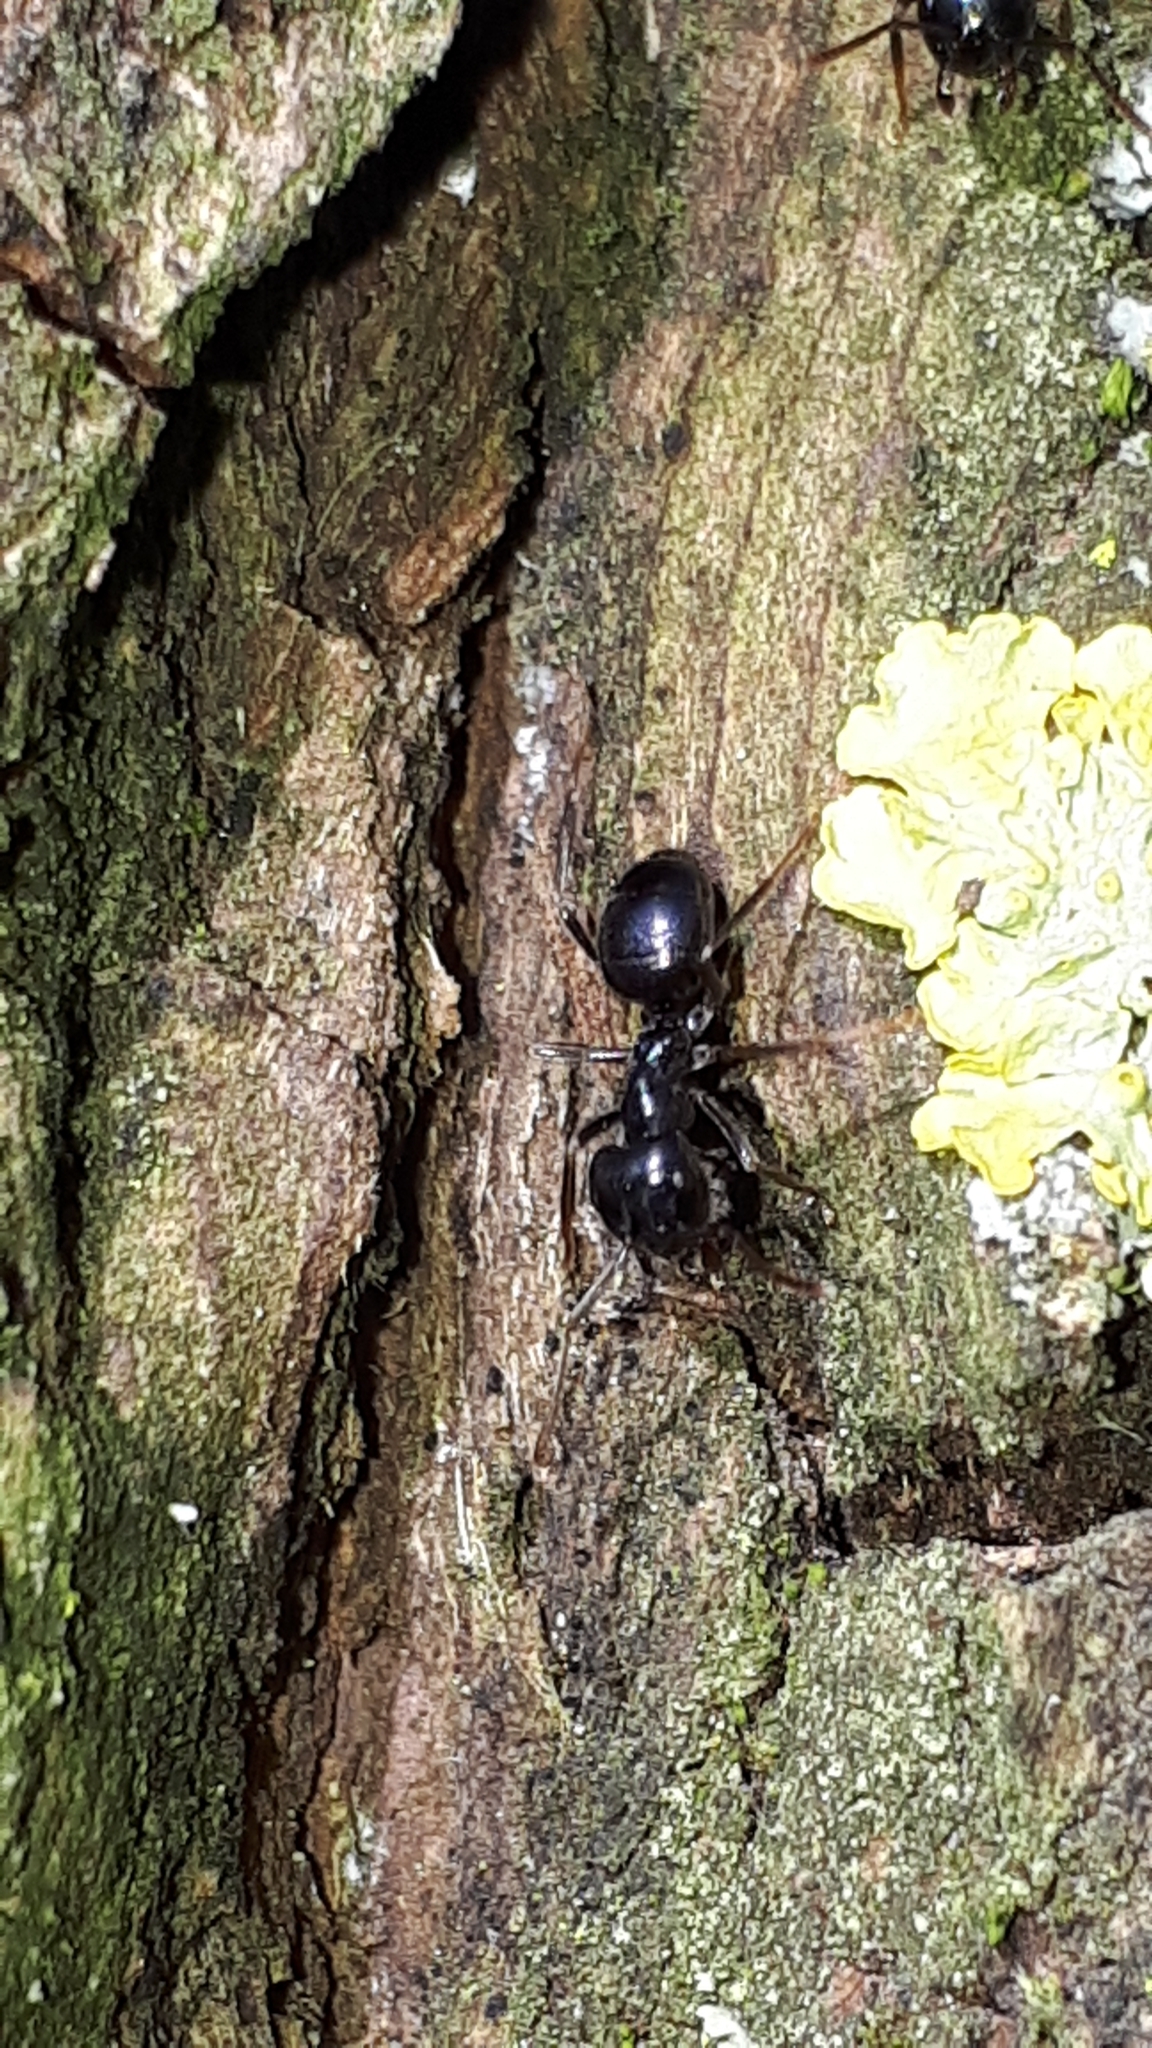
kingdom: Animalia
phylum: Arthropoda
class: Insecta
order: Hymenoptera
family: Formicidae
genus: Lasius
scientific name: Lasius fuliginosus
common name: Jet ant
